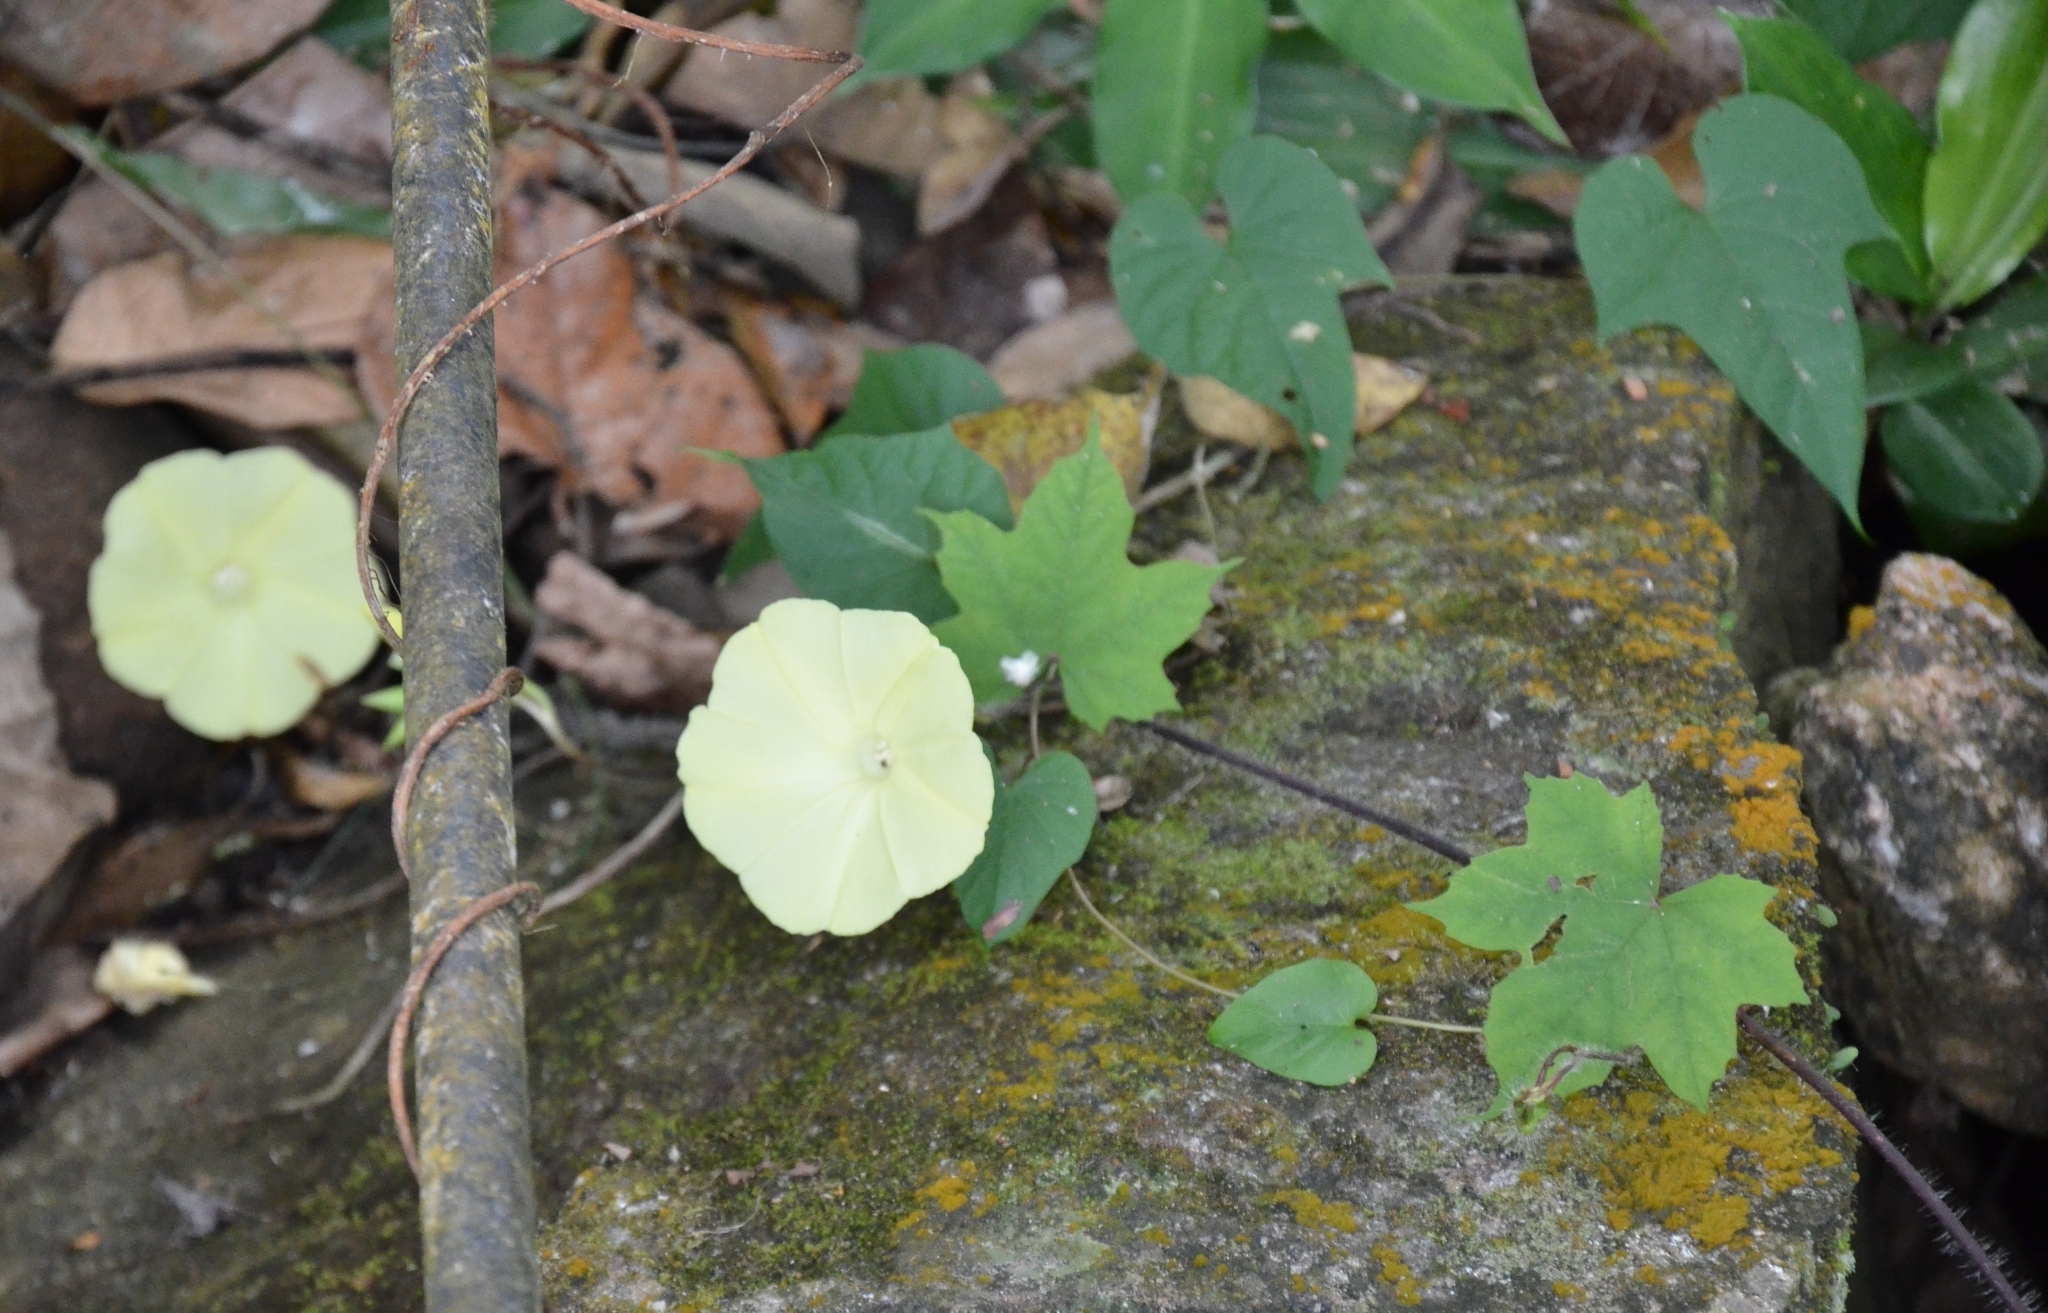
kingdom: Plantae
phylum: Tracheophyta
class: Magnoliopsida
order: Solanales
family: Convolvulaceae
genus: Distimake
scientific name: Distimake
